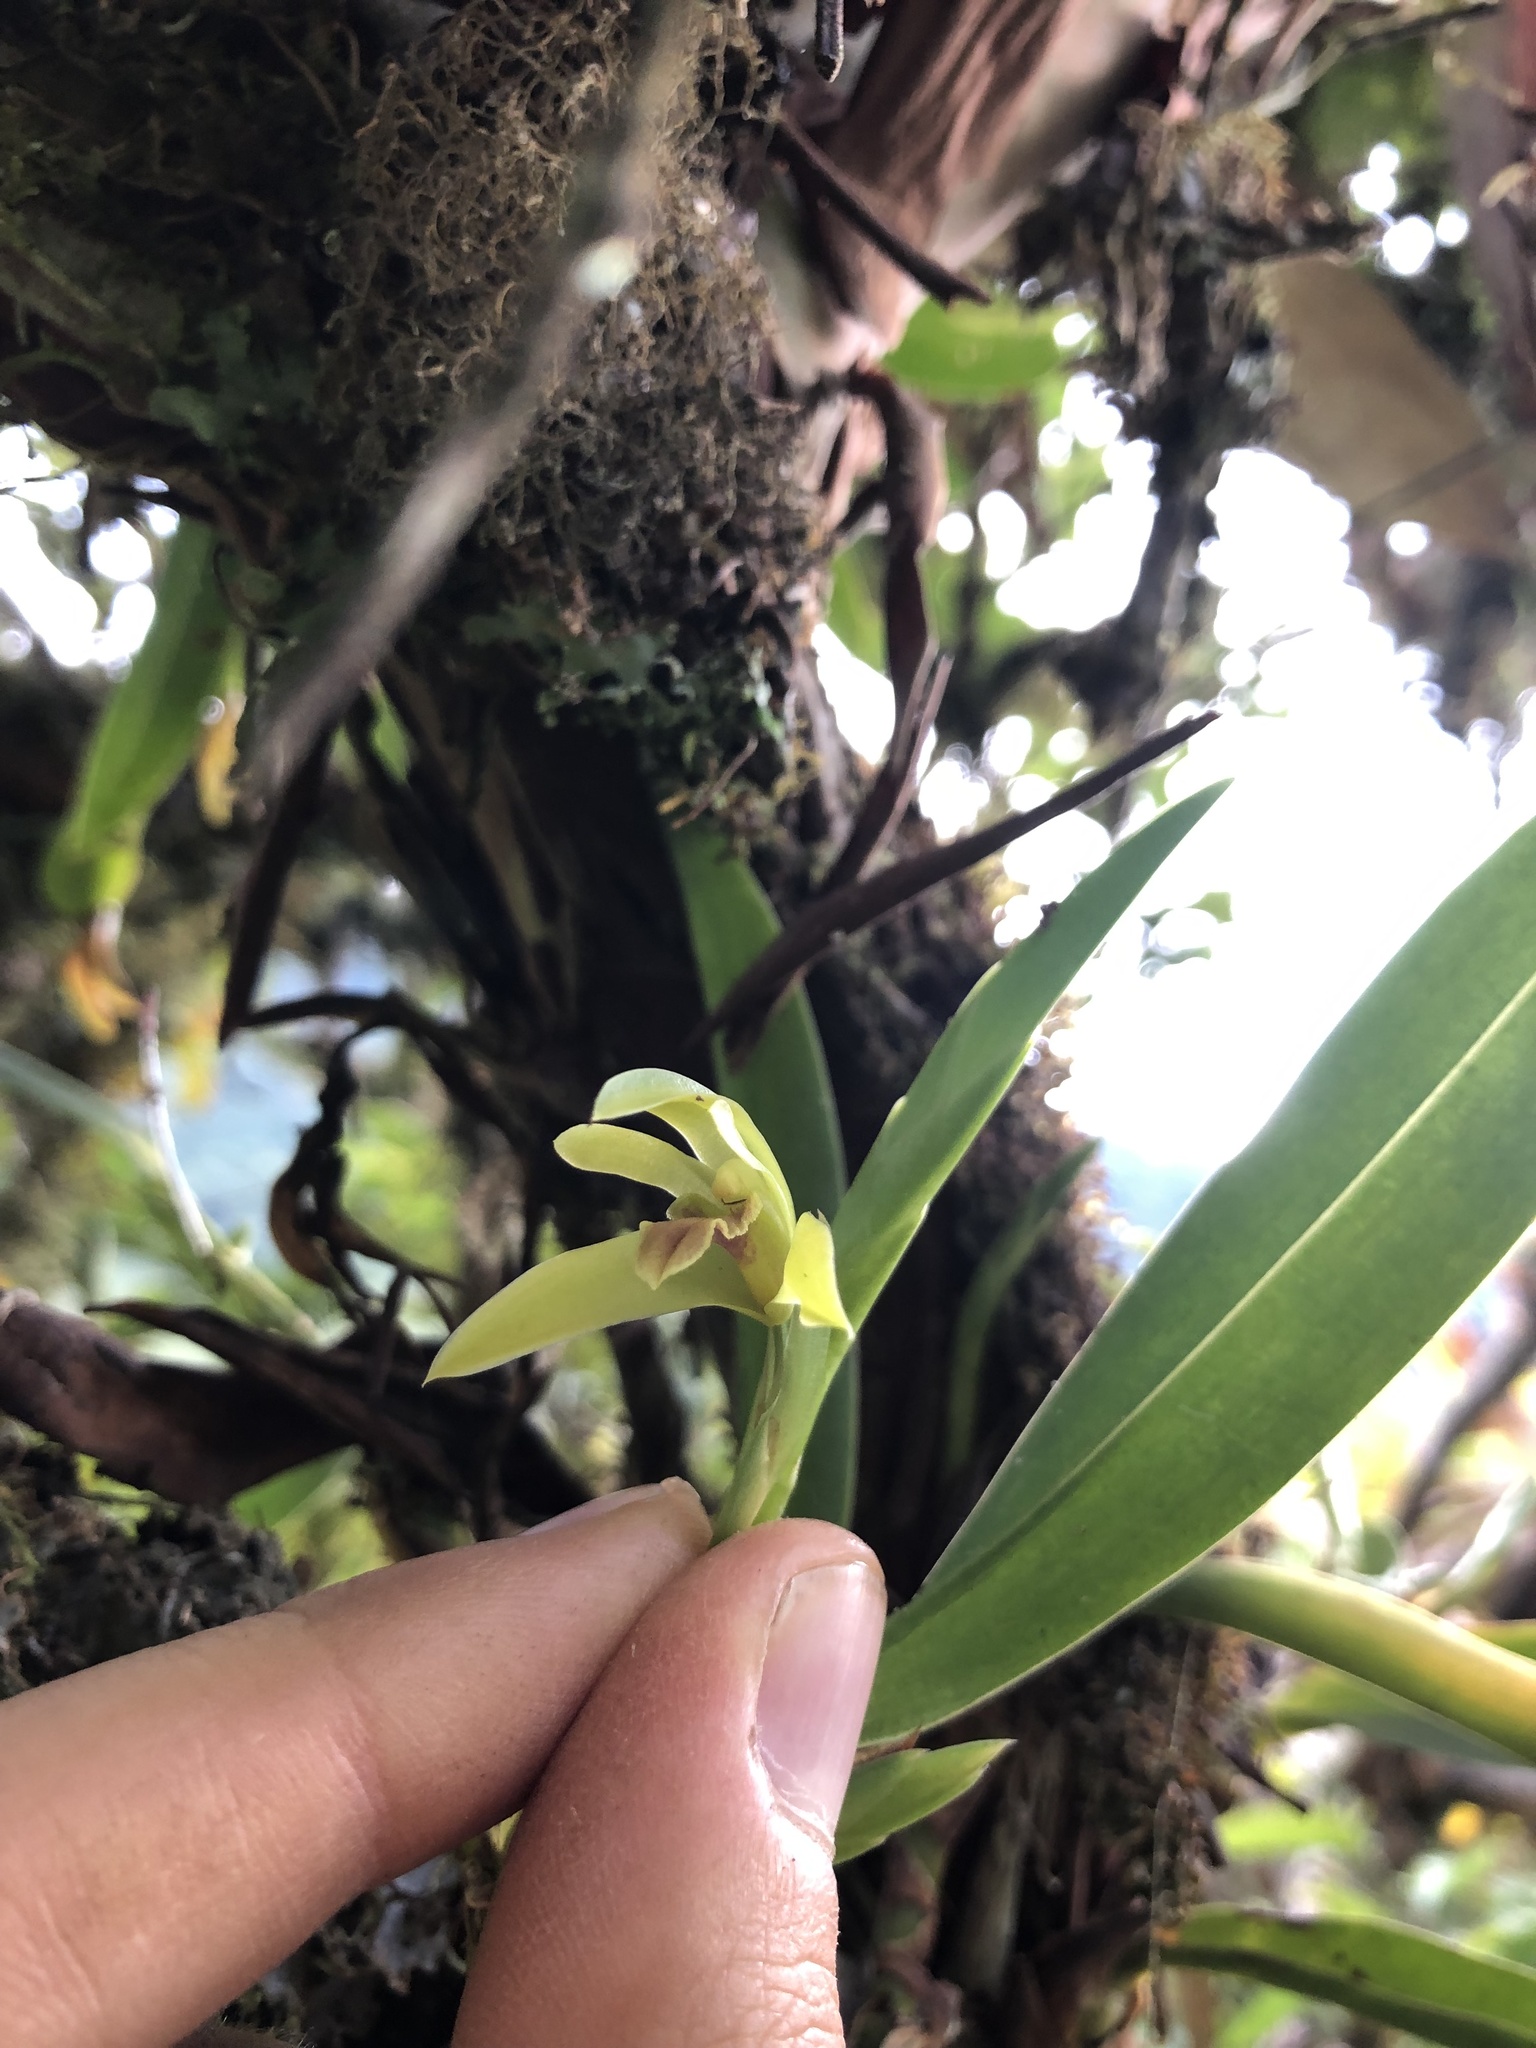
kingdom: Plantae
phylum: Tracheophyta
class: Liliopsida
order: Asparagales
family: Orchidaceae
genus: Maxillaria
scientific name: Maxillaria alpestris
